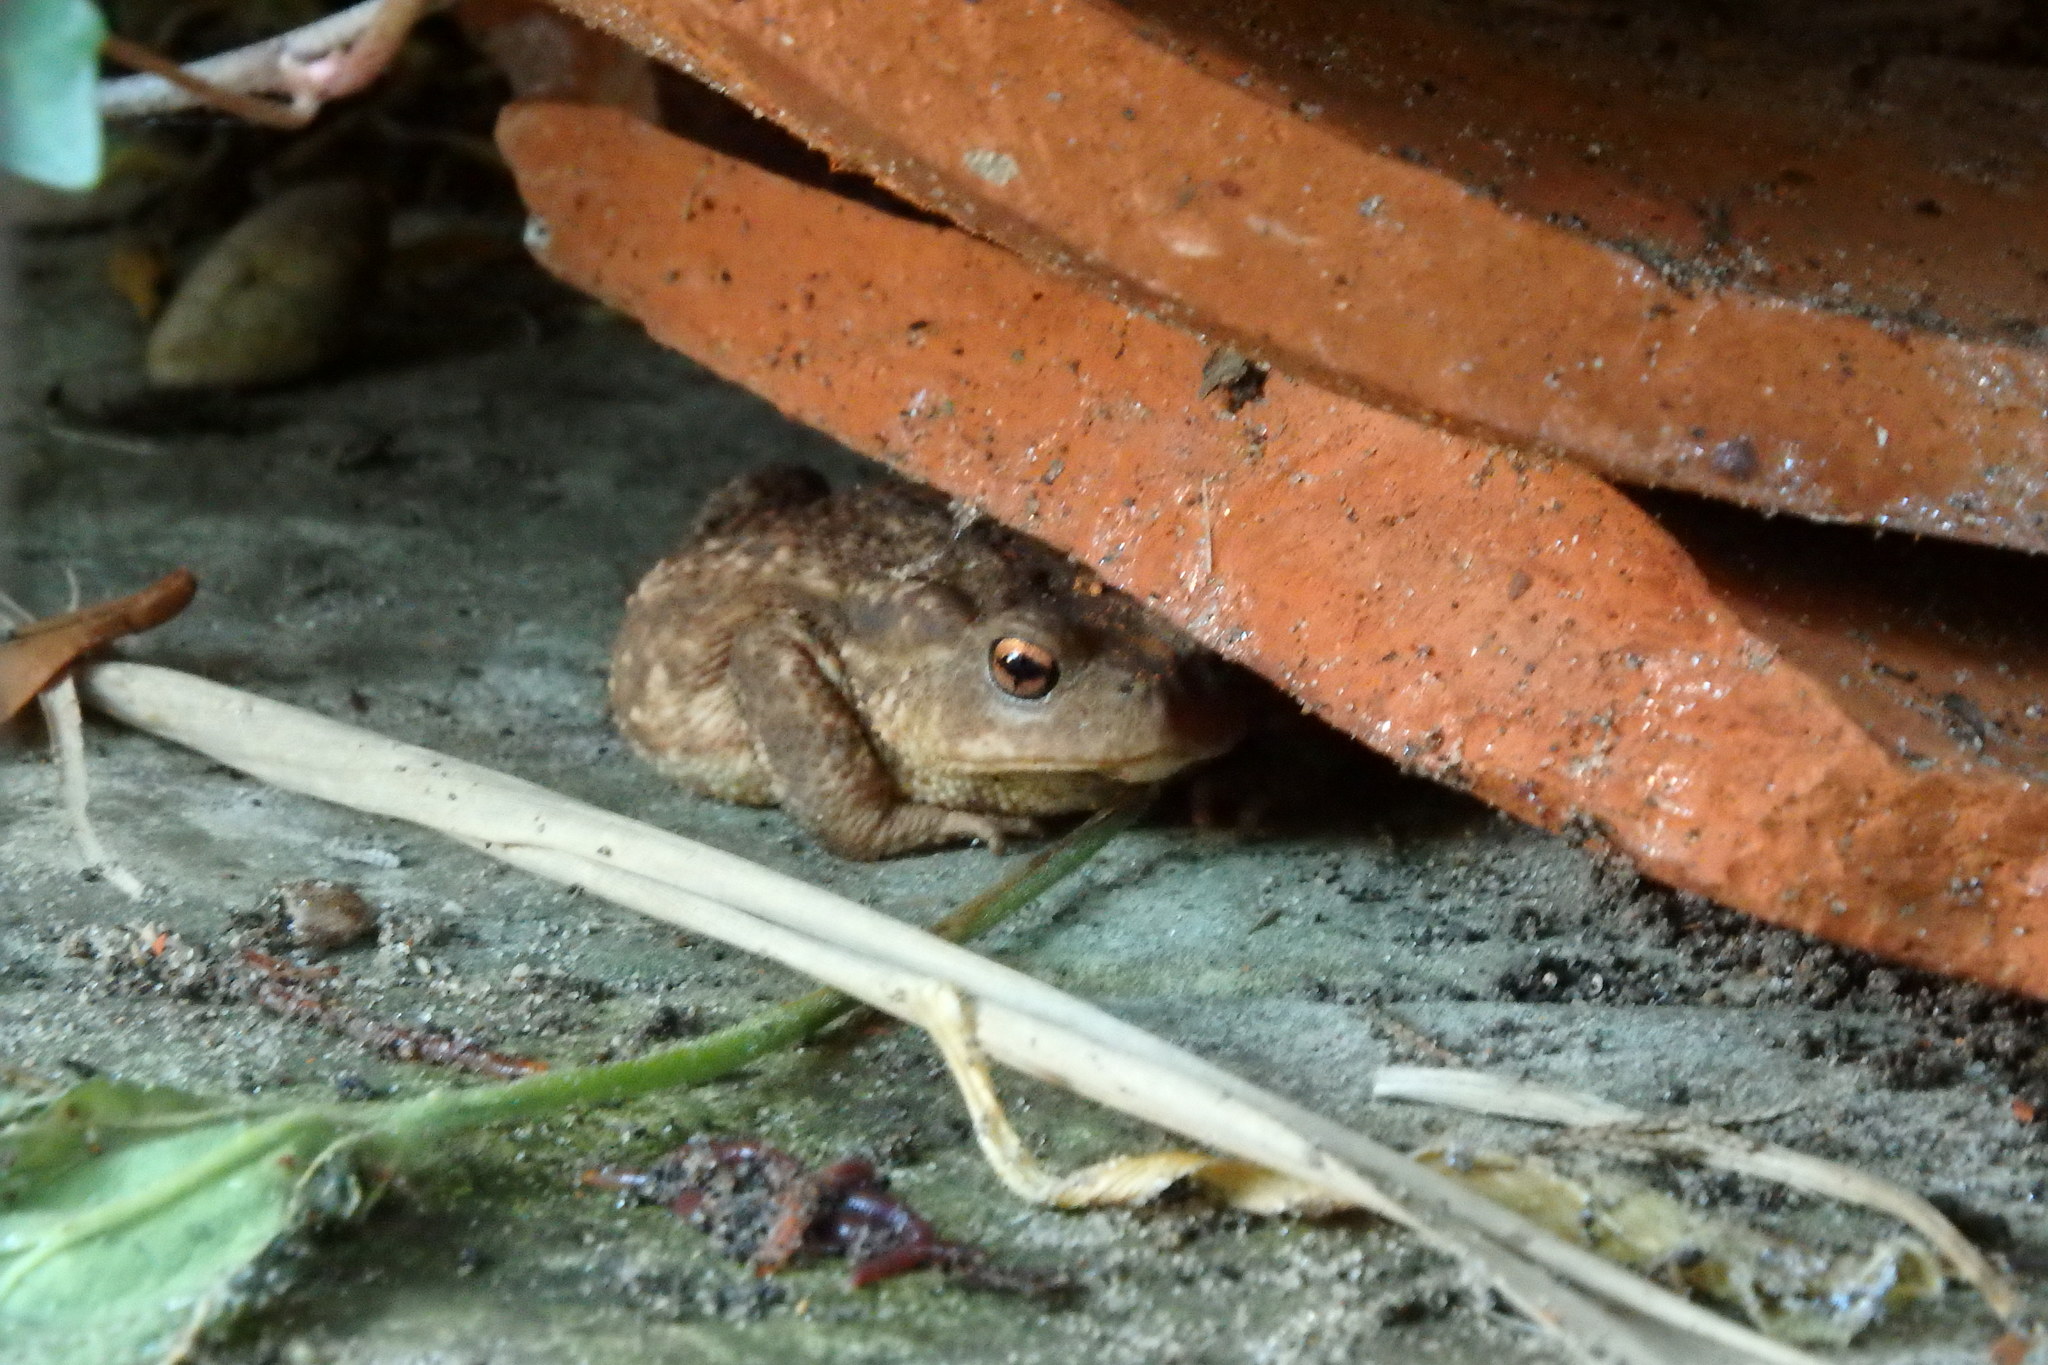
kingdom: Animalia
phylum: Chordata
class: Amphibia
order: Anura
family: Bufonidae
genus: Bufo
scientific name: Bufo spinosus
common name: Western common toad
